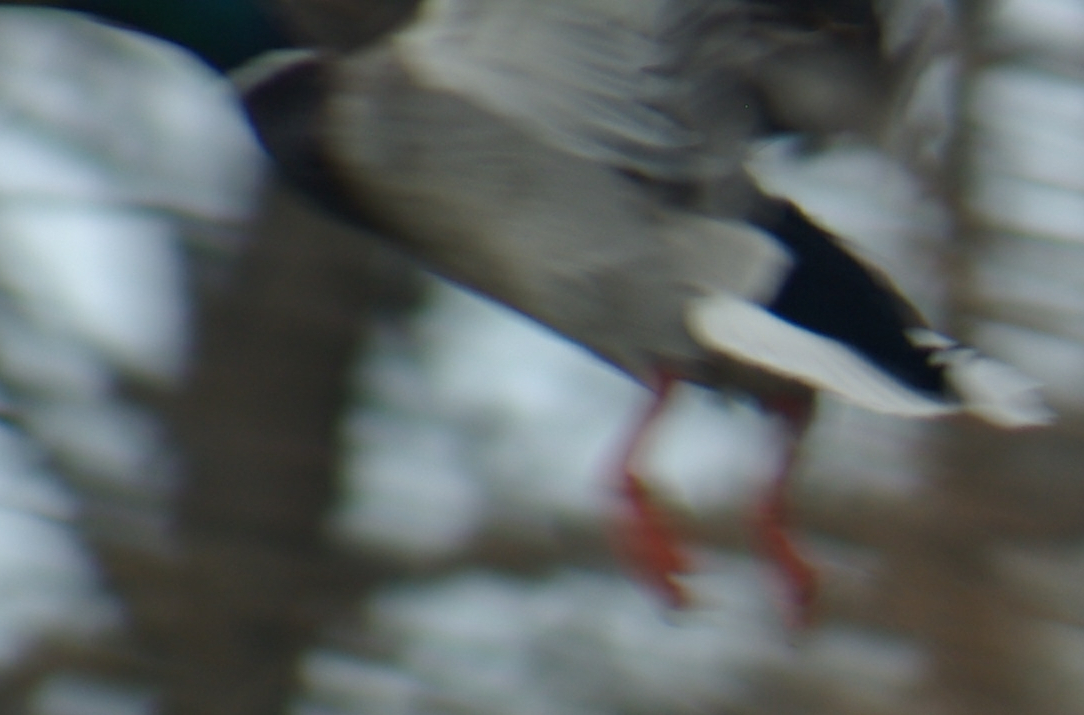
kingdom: Animalia
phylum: Chordata
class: Aves
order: Anseriformes
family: Anatidae
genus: Anas
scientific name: Anas platyrhynchos
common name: Mallard
